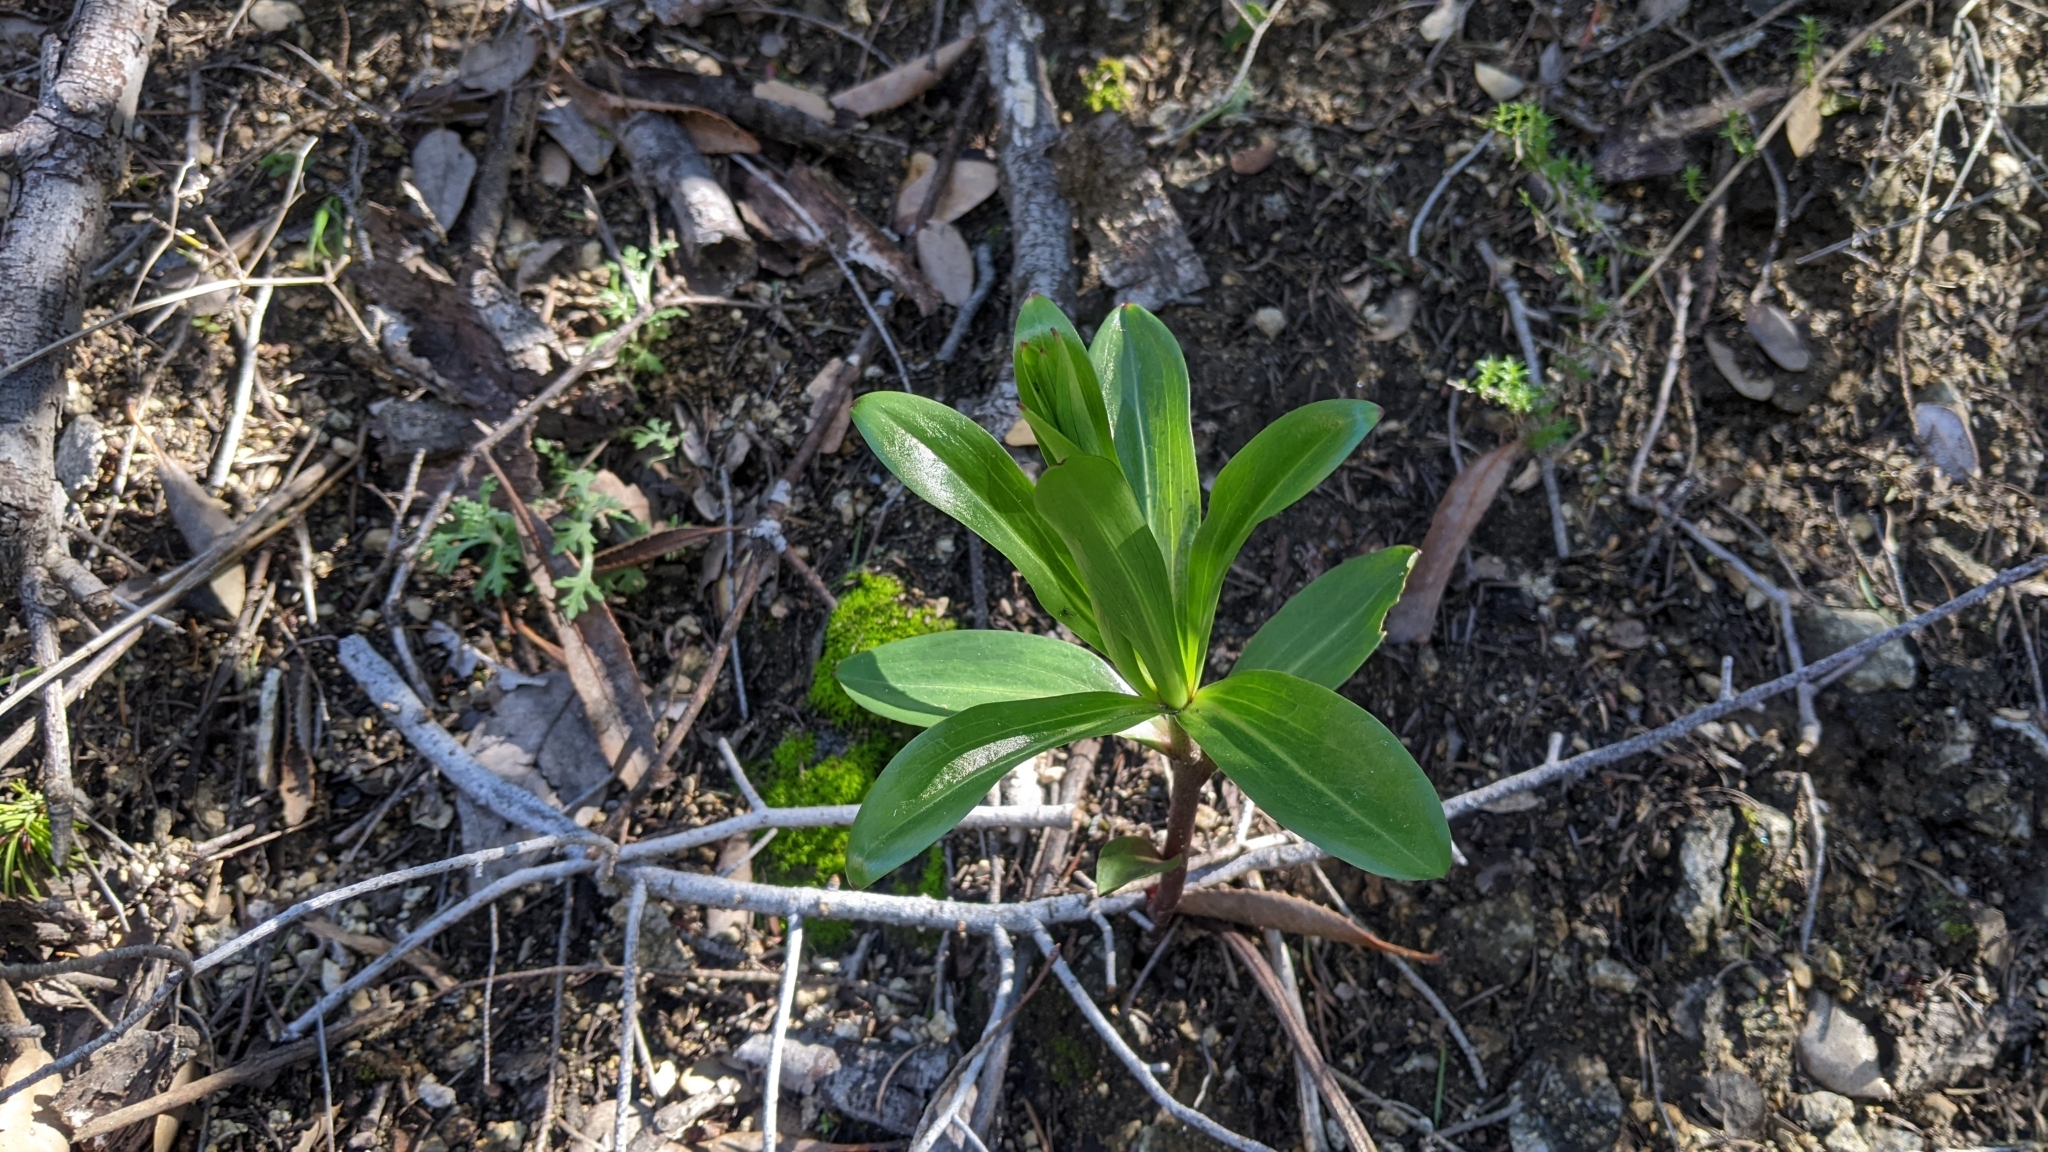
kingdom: Plantae
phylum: Tracheophyta
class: Liliopsida
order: Liliales
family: Liliaceae
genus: Lilium
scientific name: Lilium humboldtii
